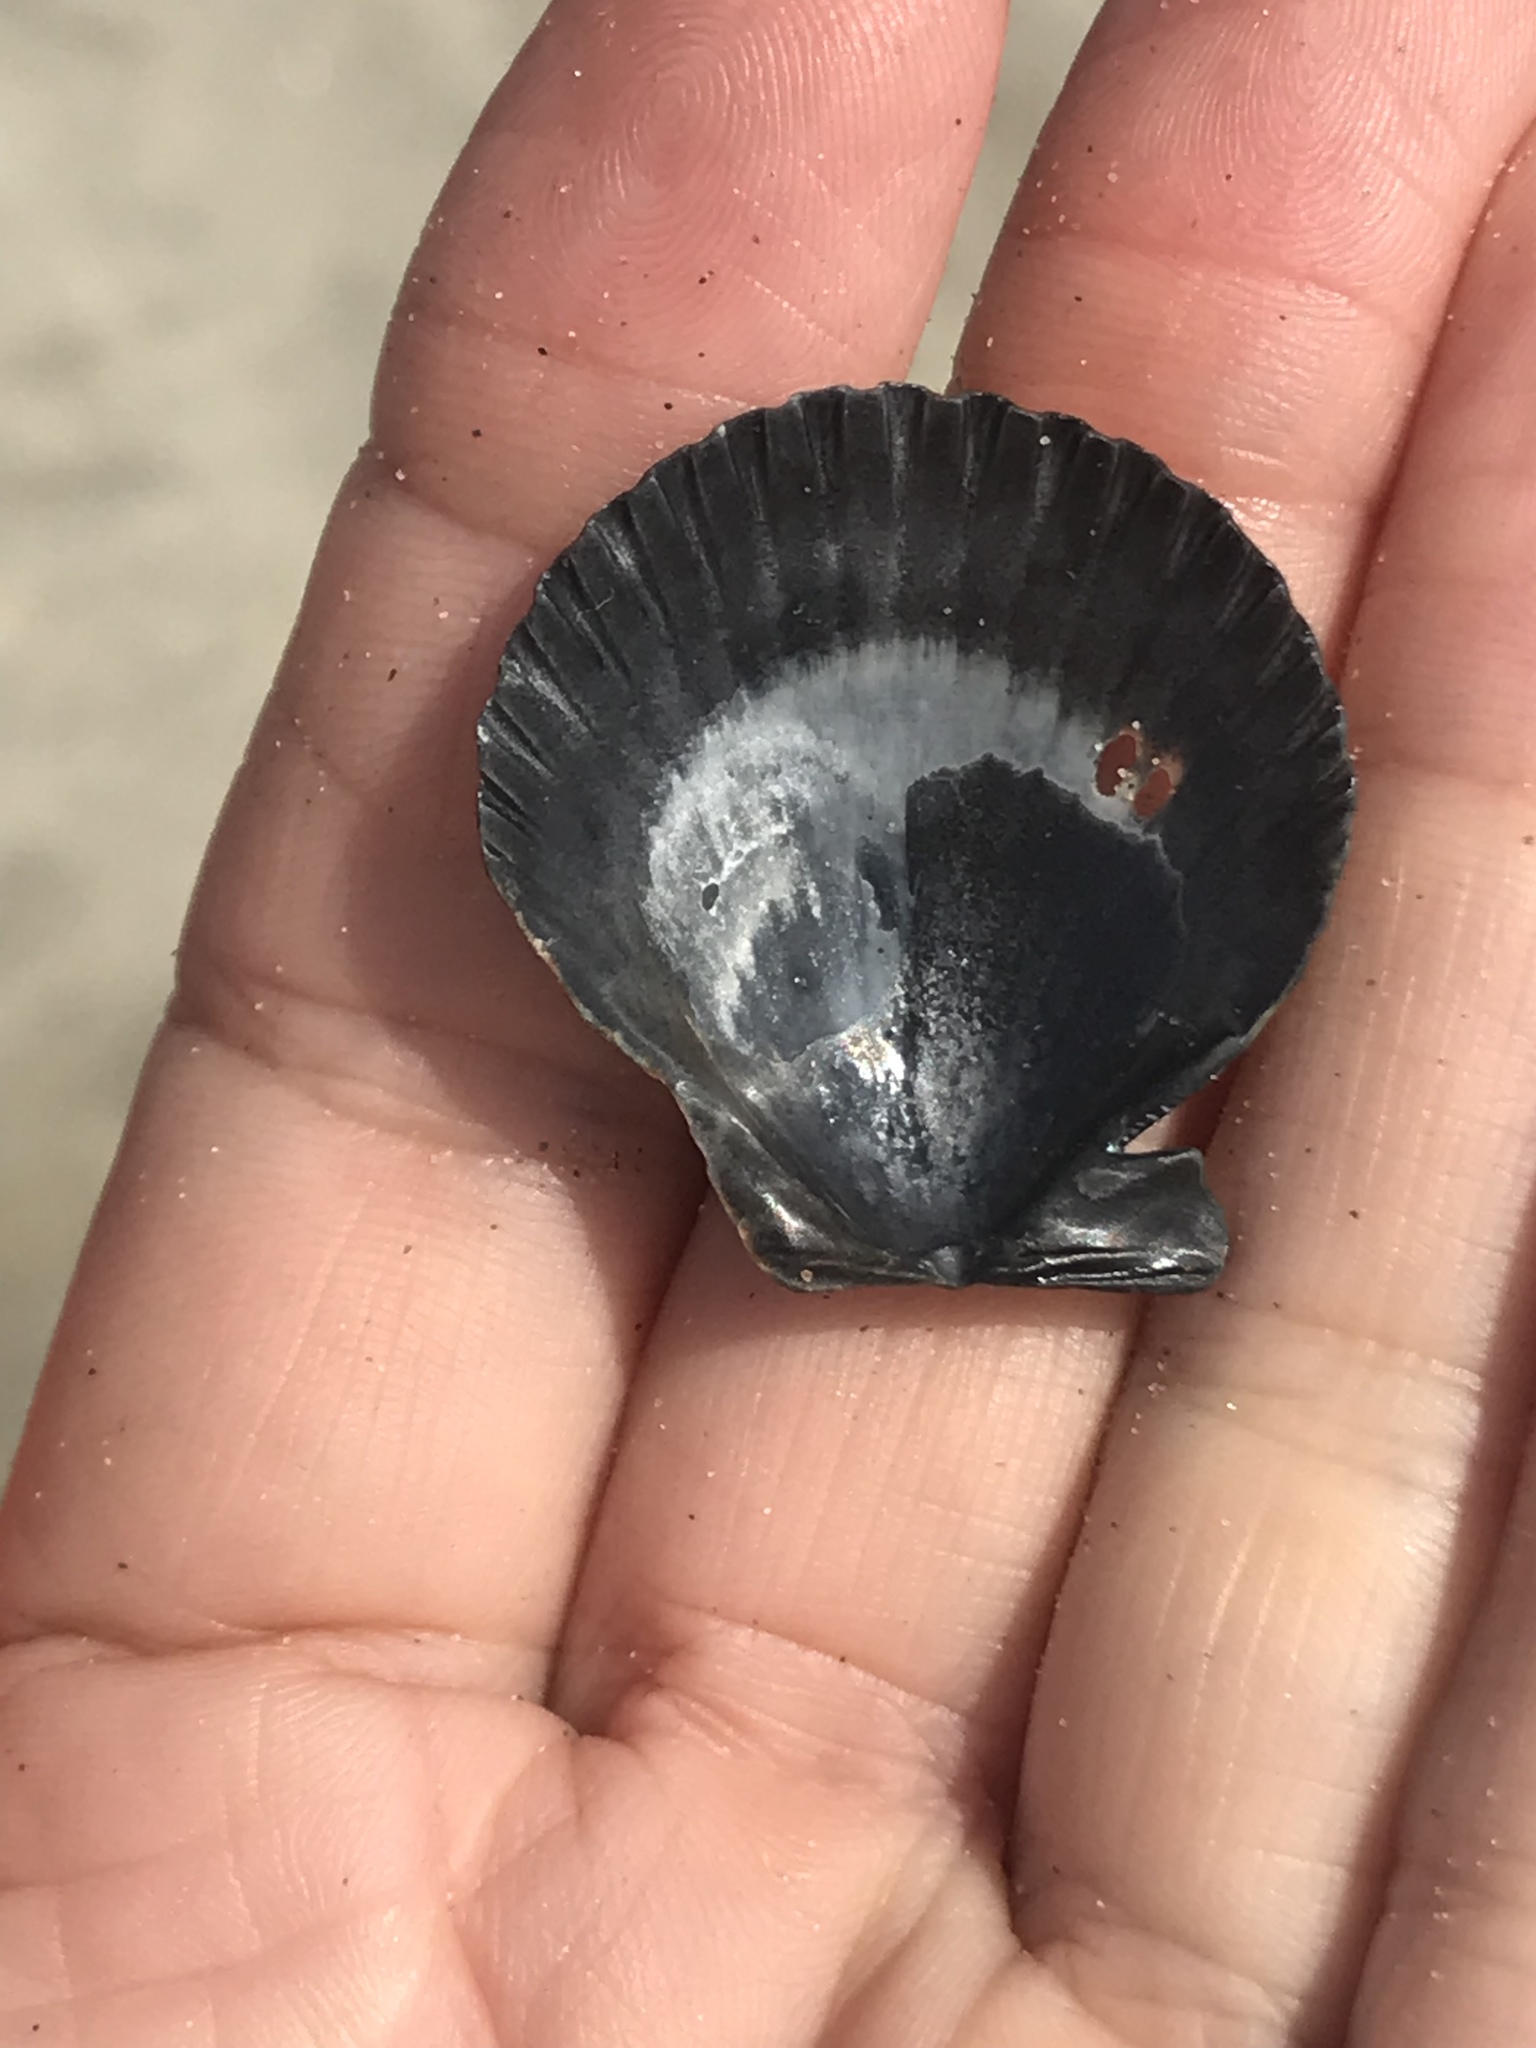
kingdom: Animalia
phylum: Mollusca
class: Bivalvia
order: Pectinida
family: Pectinidae
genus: Argopecten
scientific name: Argopecten ventricosus
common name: Catarina scallop
